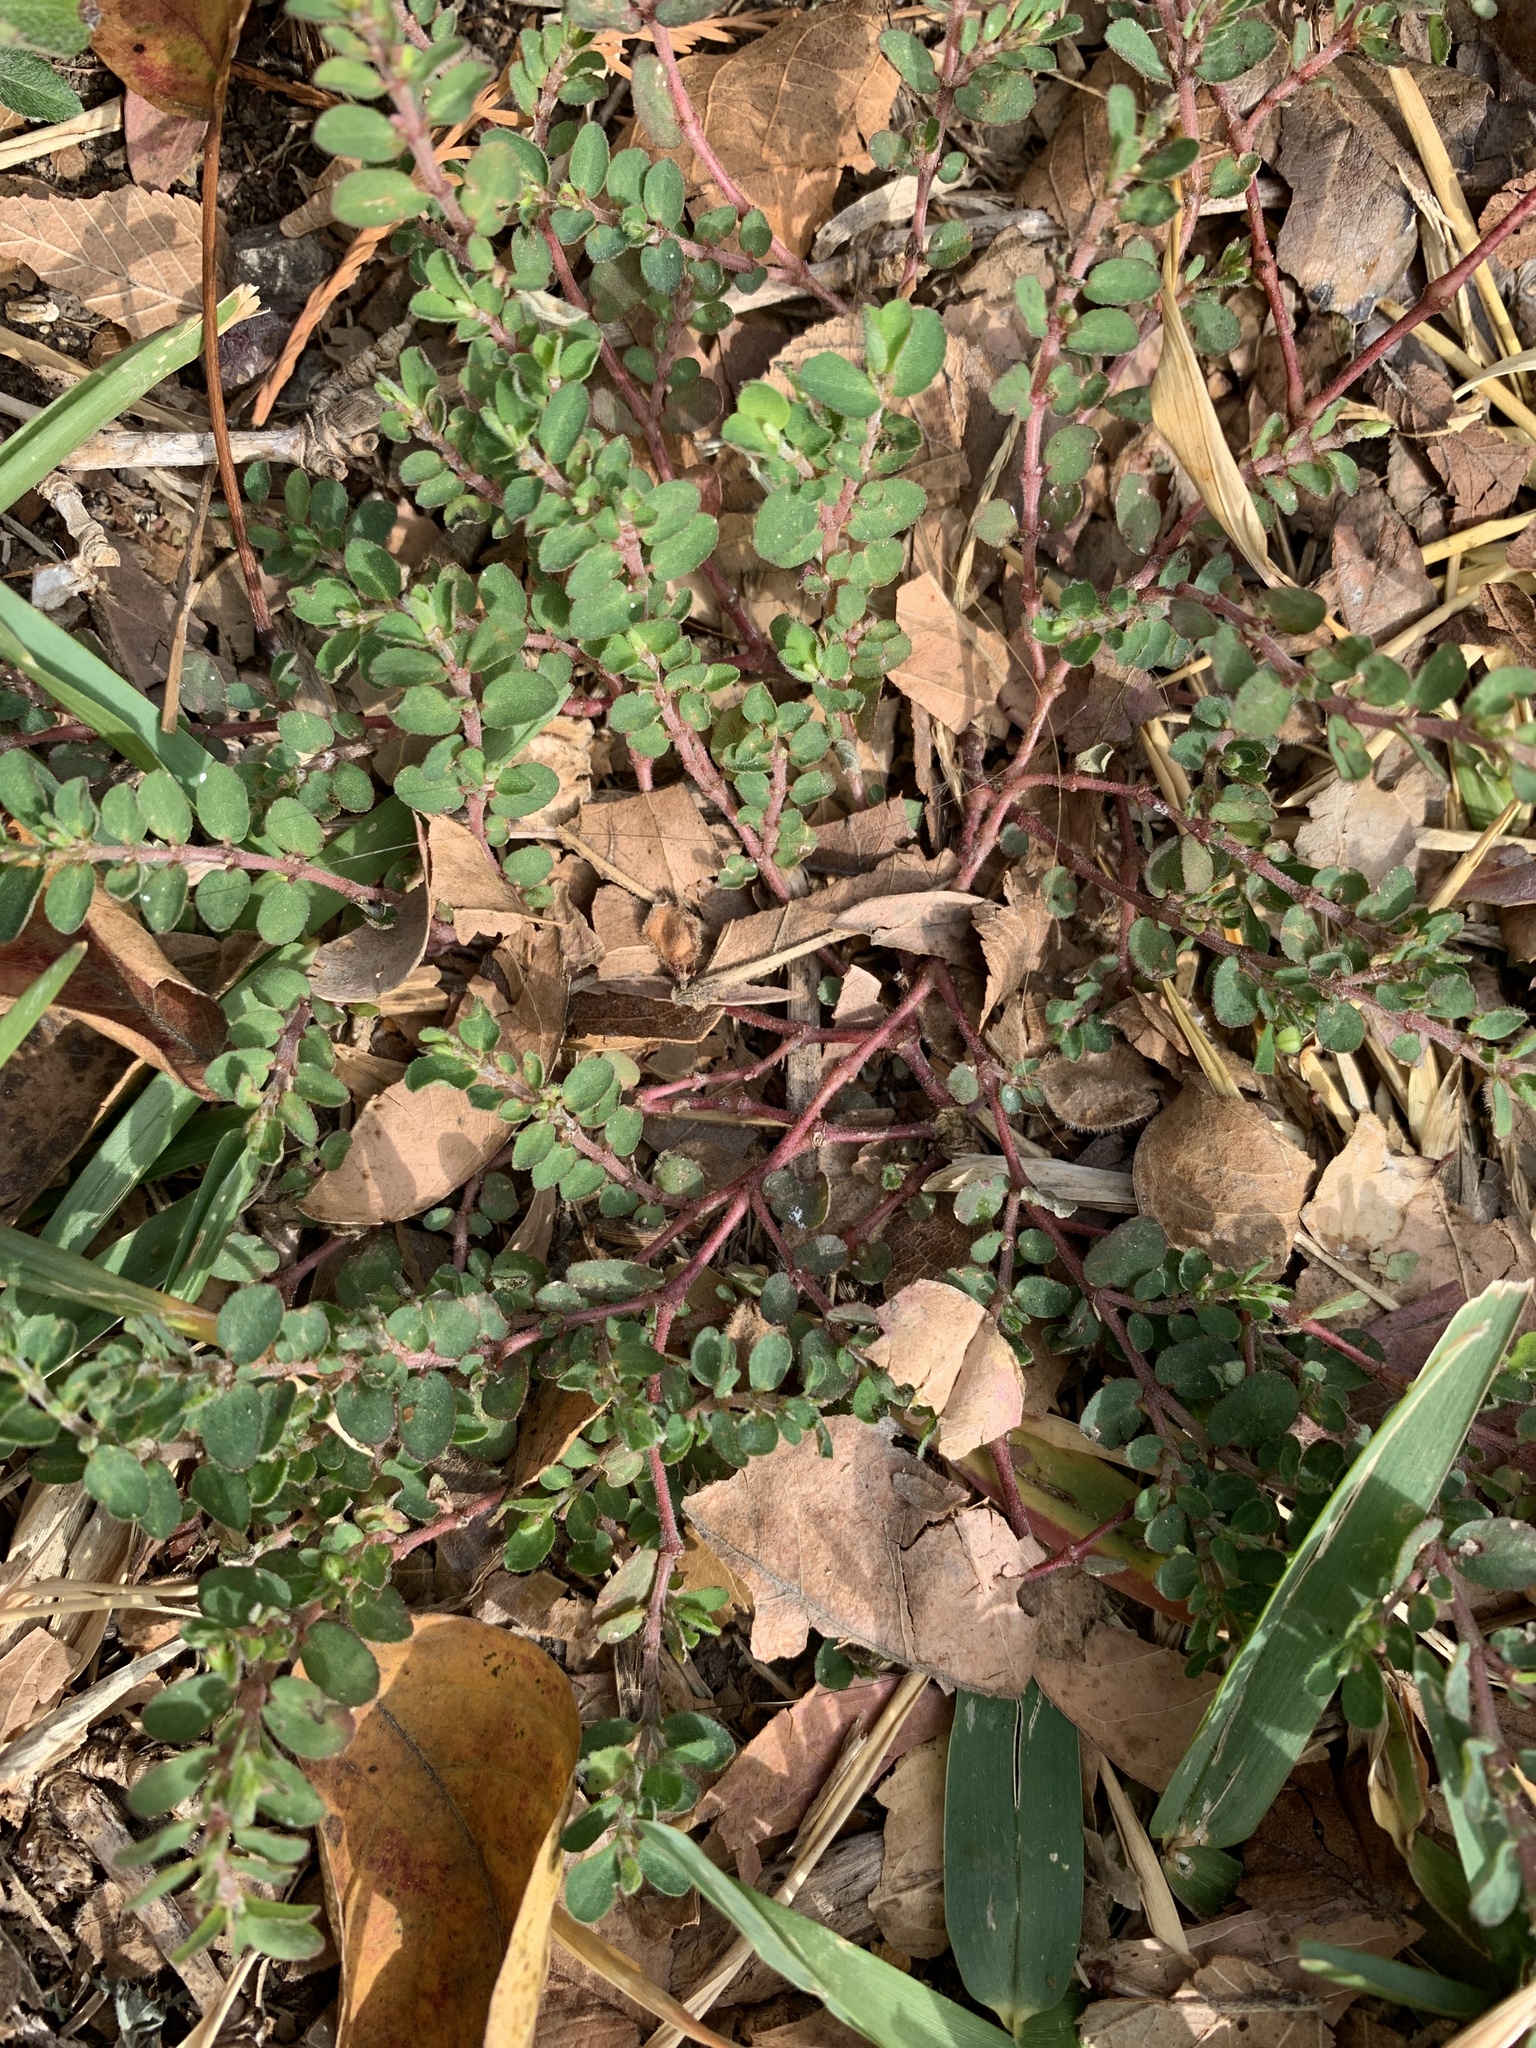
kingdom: Plantae
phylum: Tracheophyta
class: Magnoliopsida
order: Malpighiales
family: Euphorbiaceae
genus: Euphorbia
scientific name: Euphorbia prostrata
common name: Prostrate sandmat
